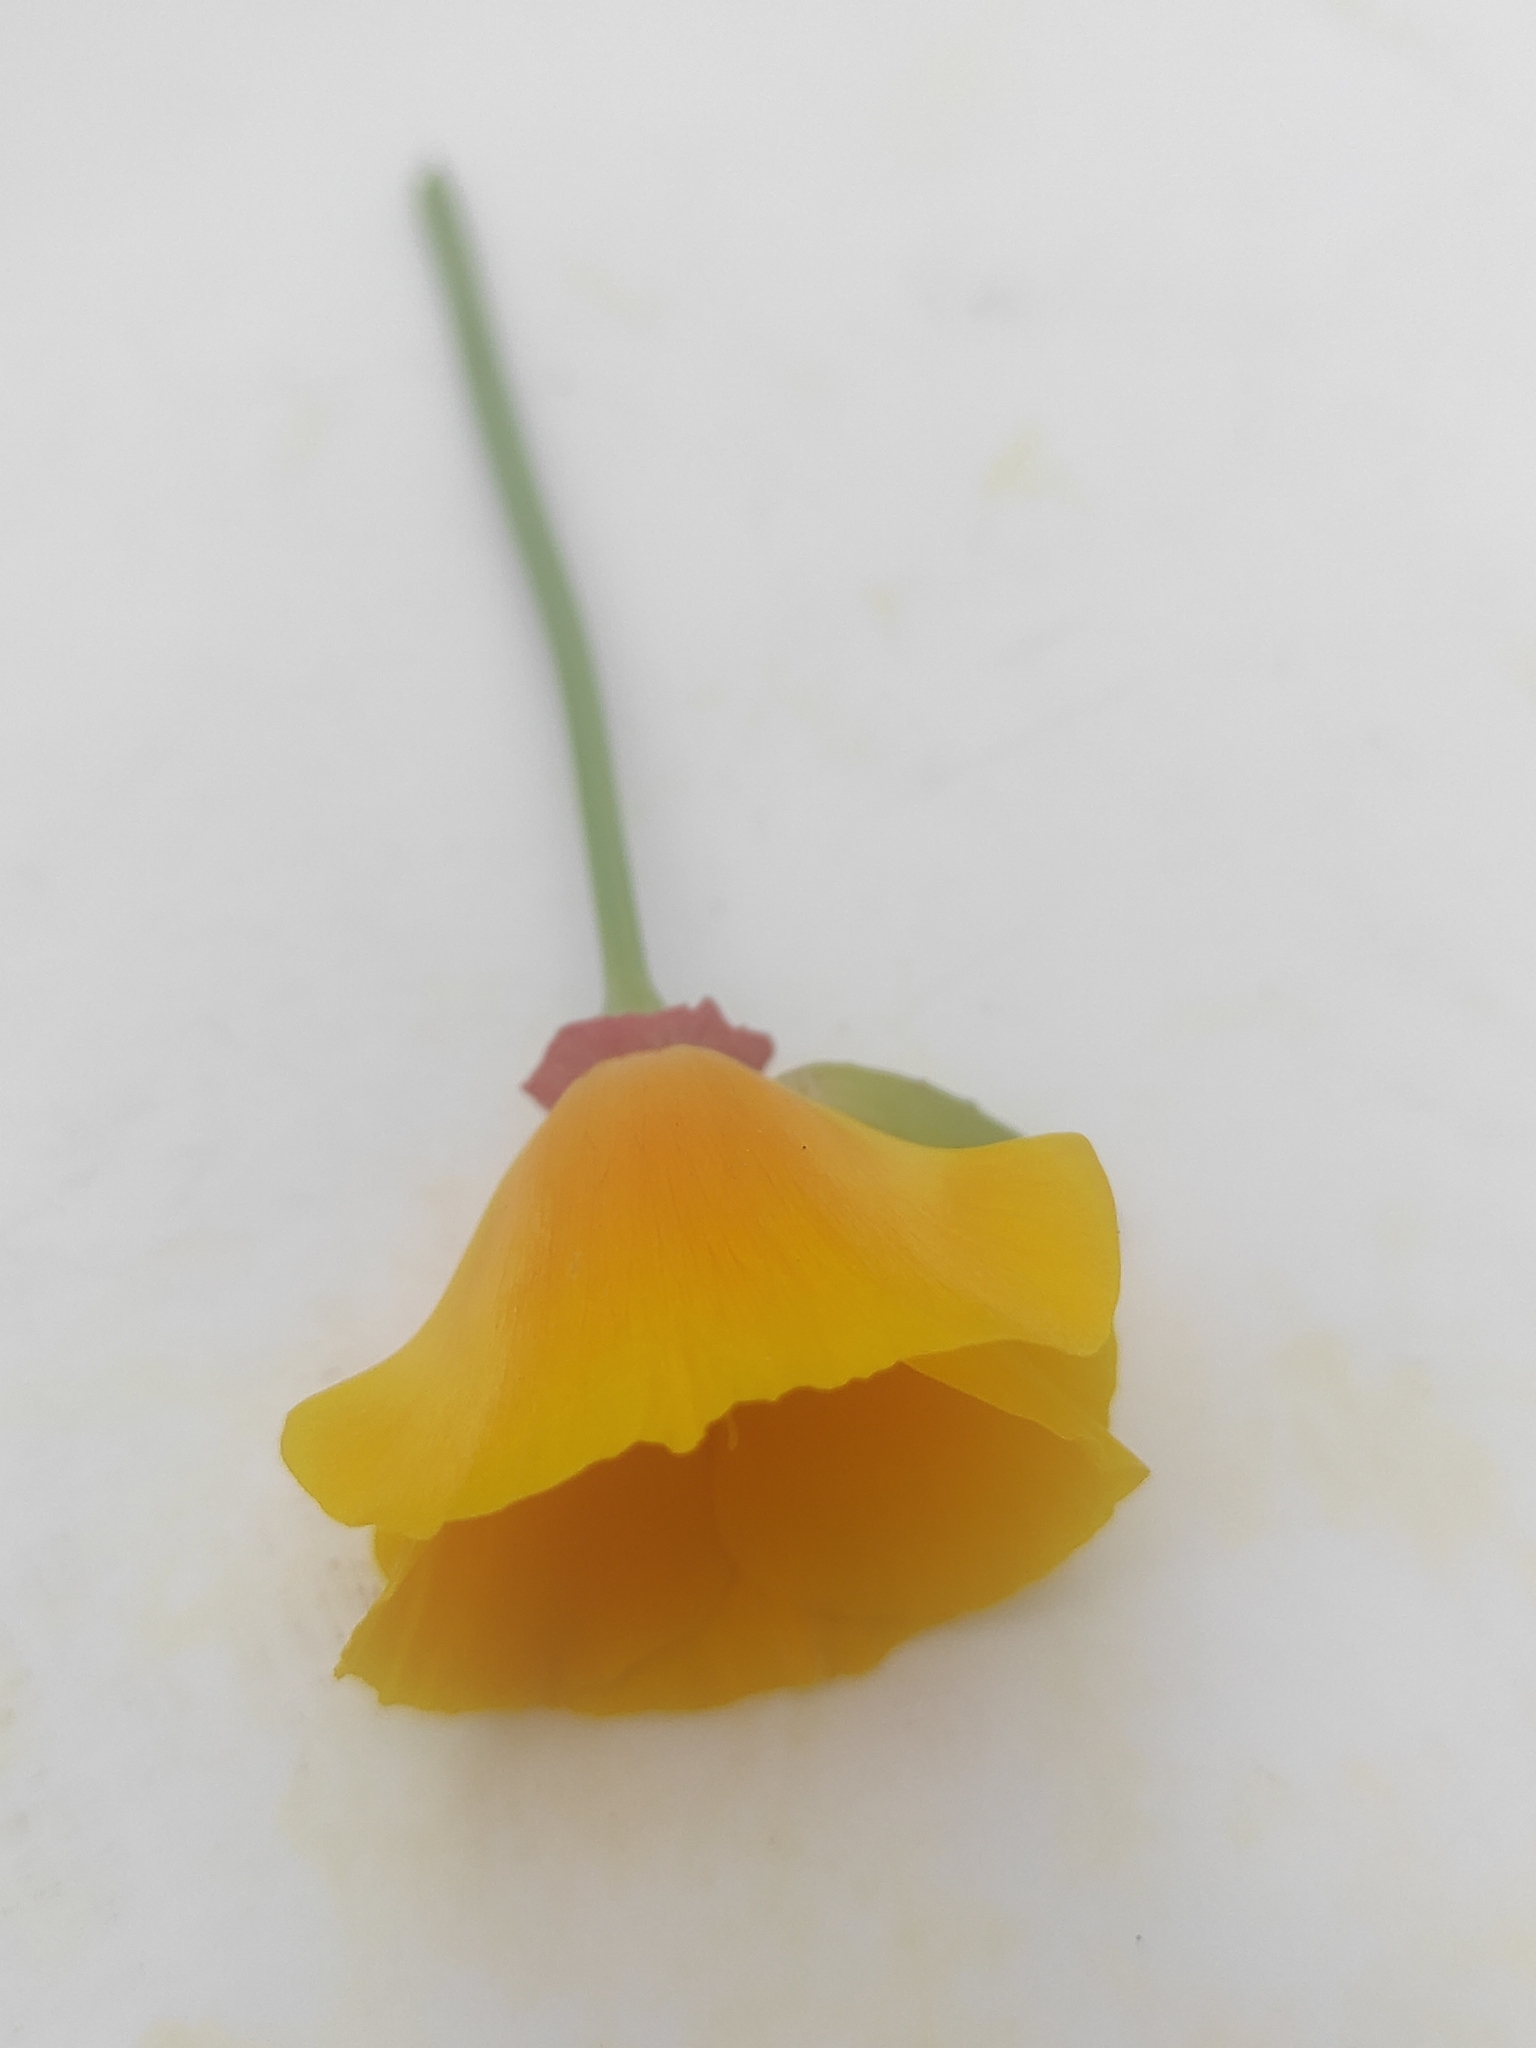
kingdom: Plantae
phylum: Tracheophyta
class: Magnoliopsida
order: Ranunculales
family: Papaveraceae
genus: Eschscholzia
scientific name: Eschscholzia californica
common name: California poppy
